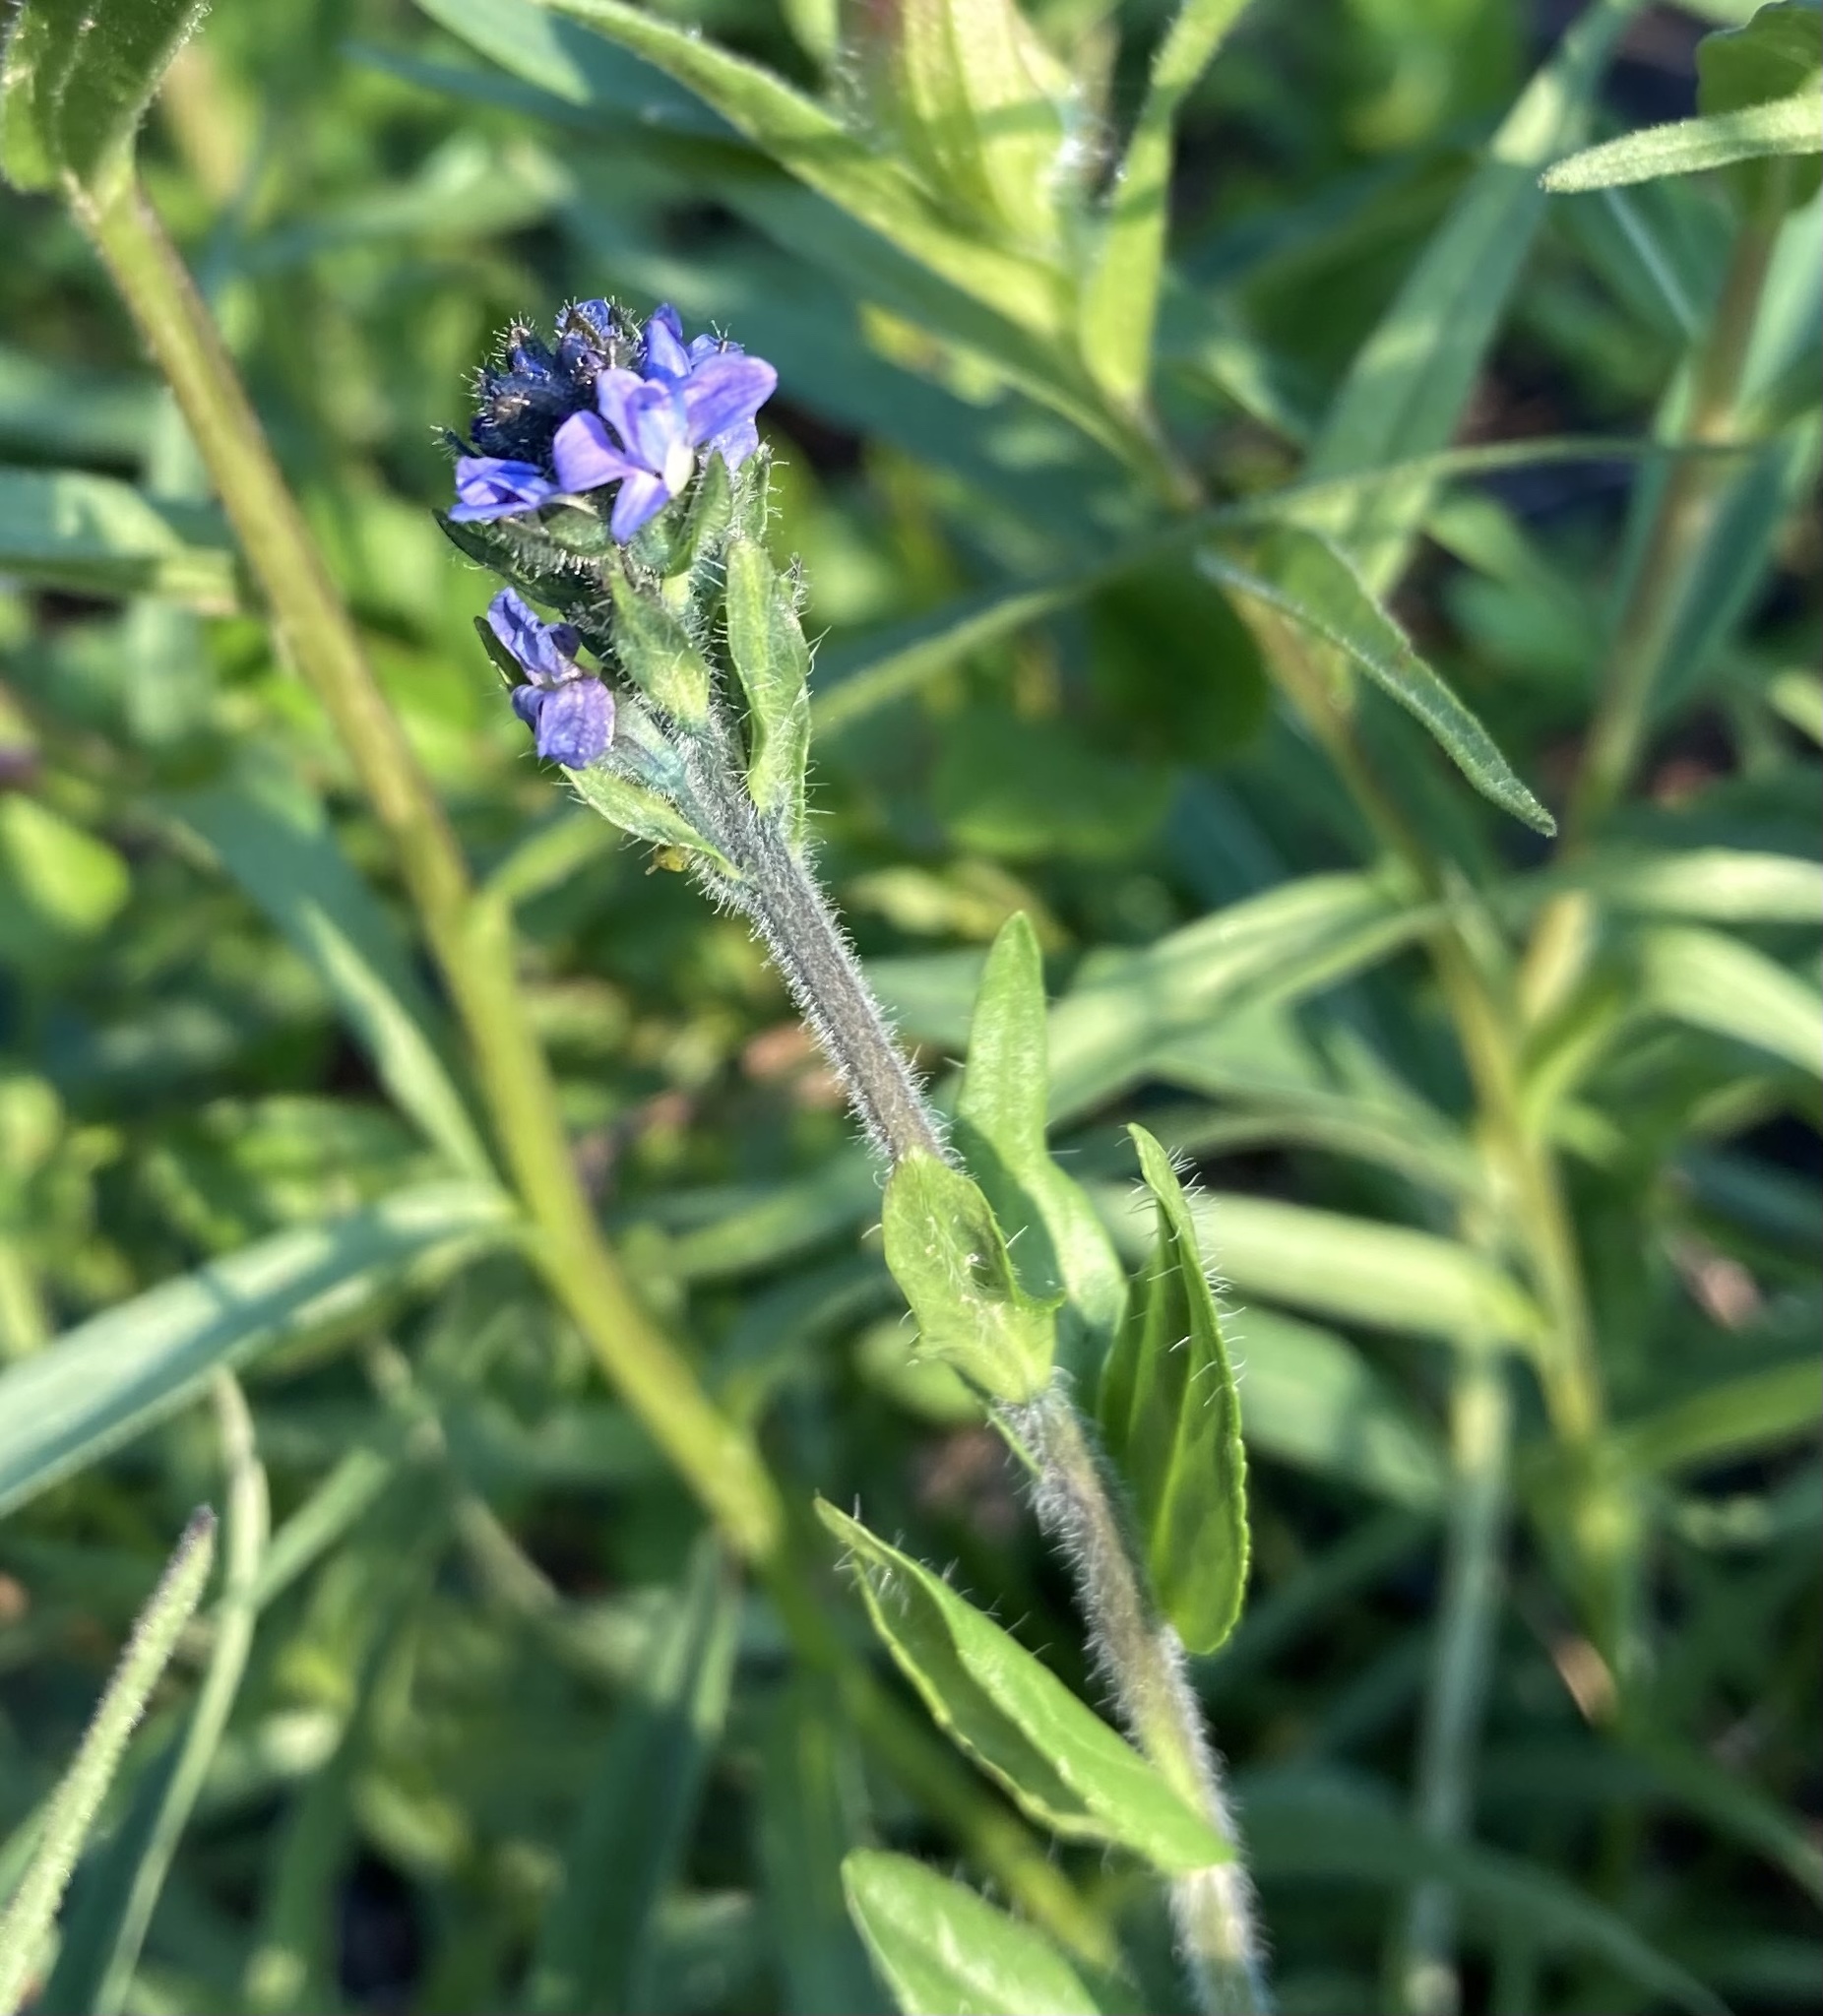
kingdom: Plantae
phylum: Tracheophyta
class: Magnoliopsida
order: Lamiales
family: Plantaginaceae
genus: Veronica
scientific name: Veronica wormskjoldii
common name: American alpine speedwell
